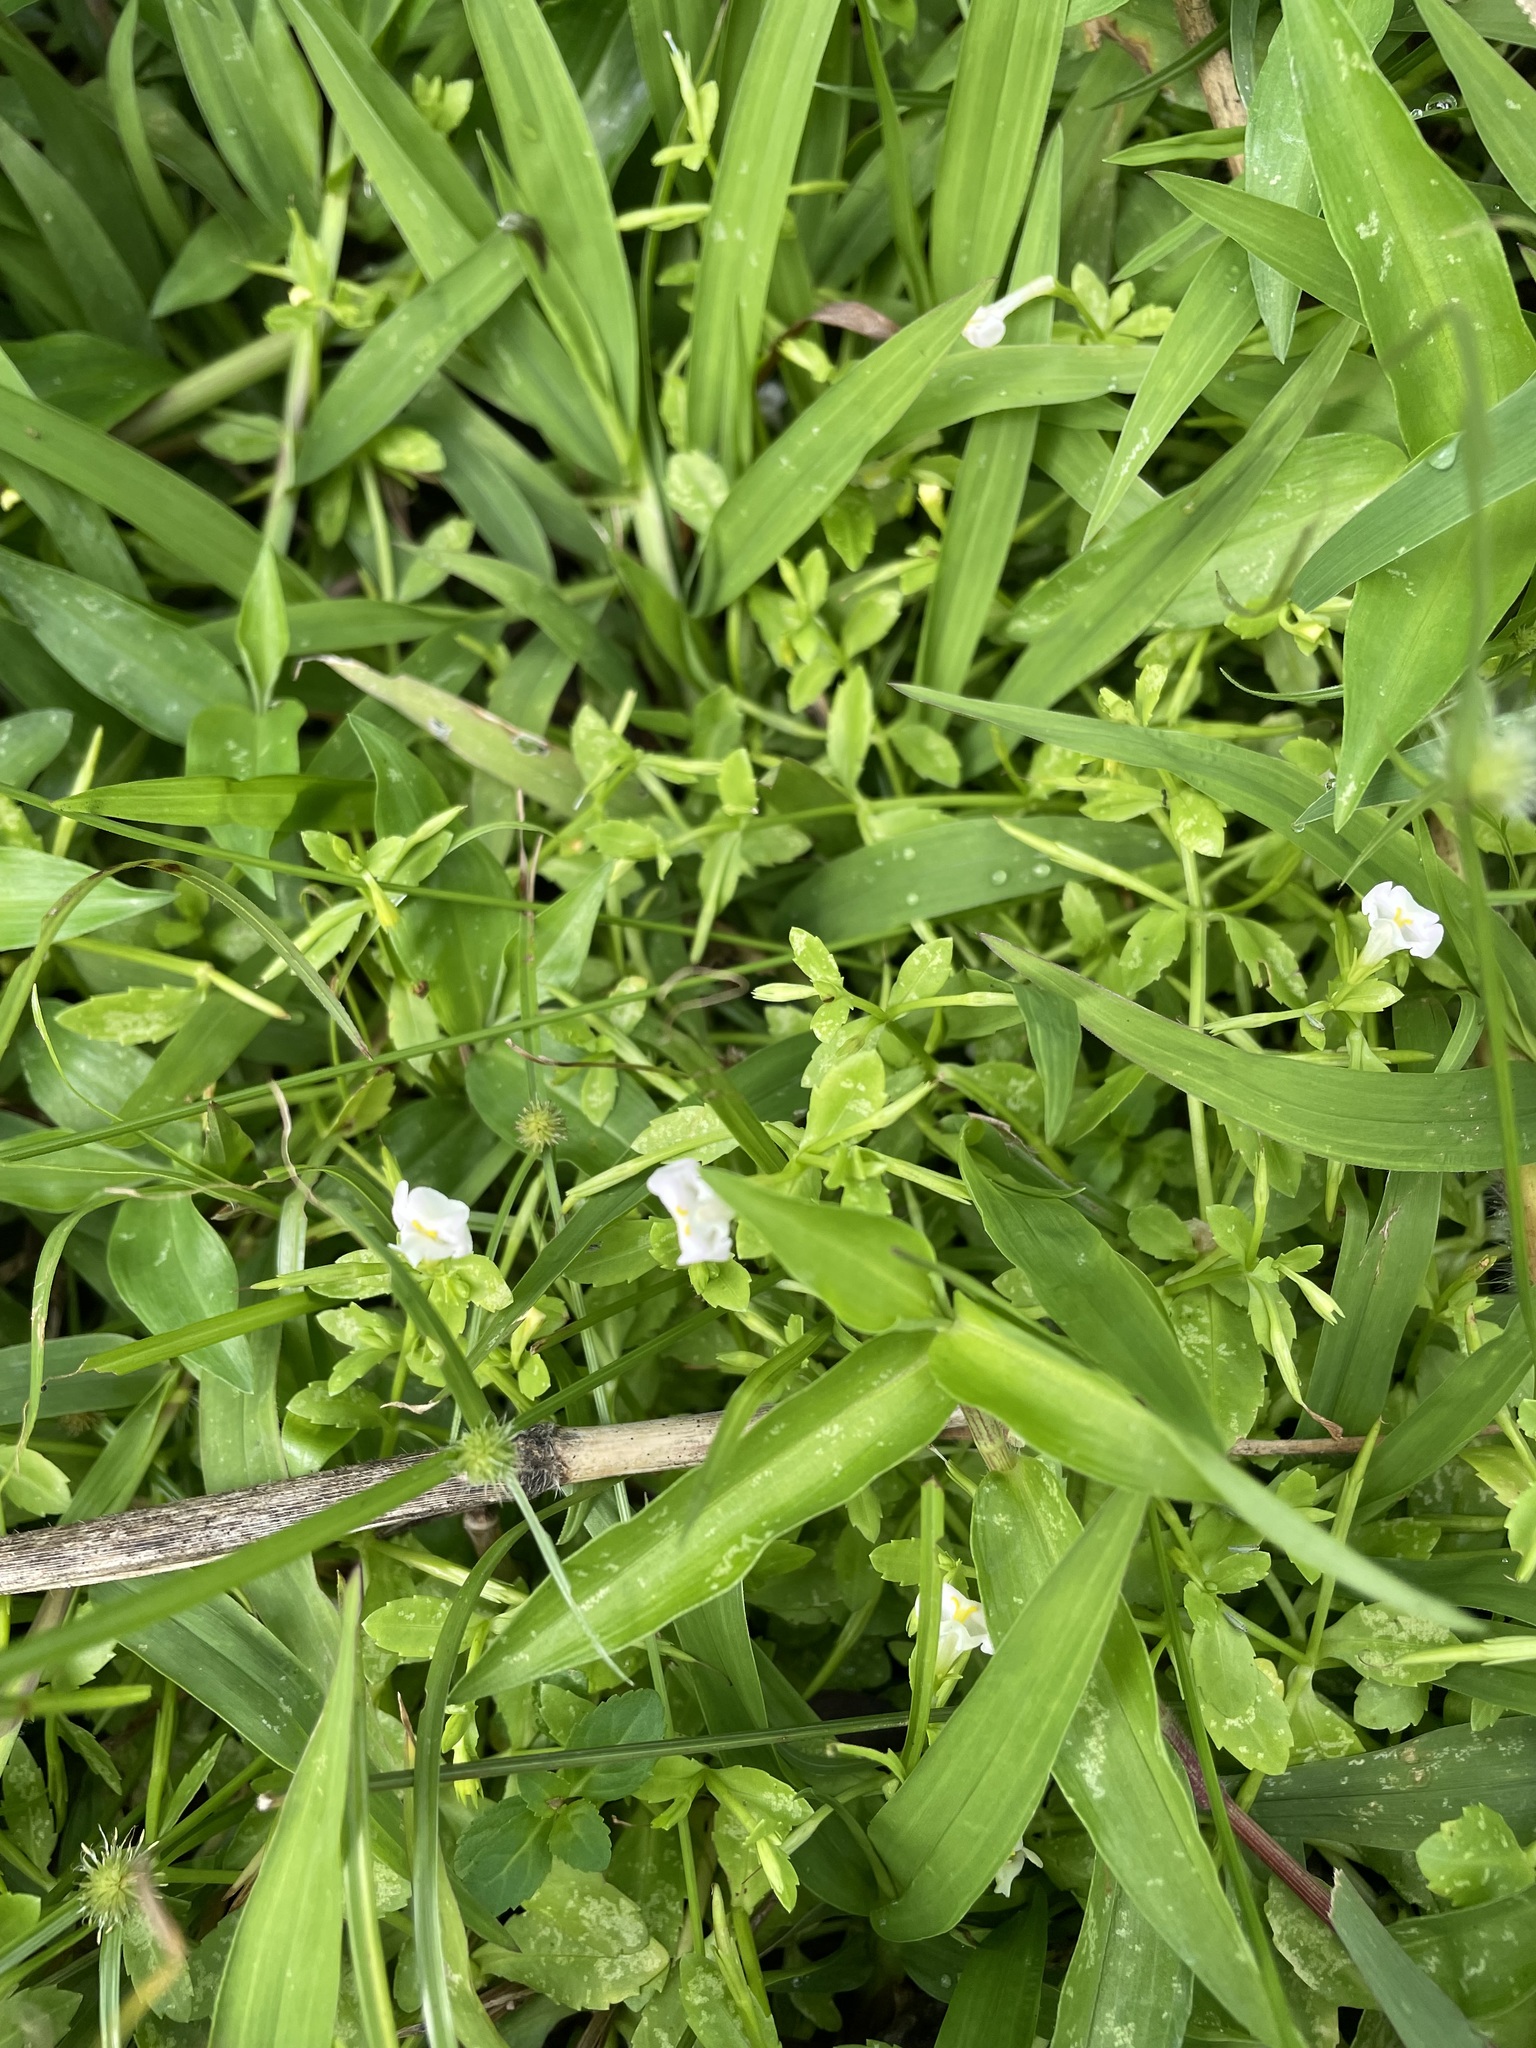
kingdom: Plantae
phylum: Tracheophyta
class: Magnoliopsida
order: Lamiales
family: Linderniaceae
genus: Bonnaya
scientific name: Bonnaya antipoda
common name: Sparrow false pimpernel
